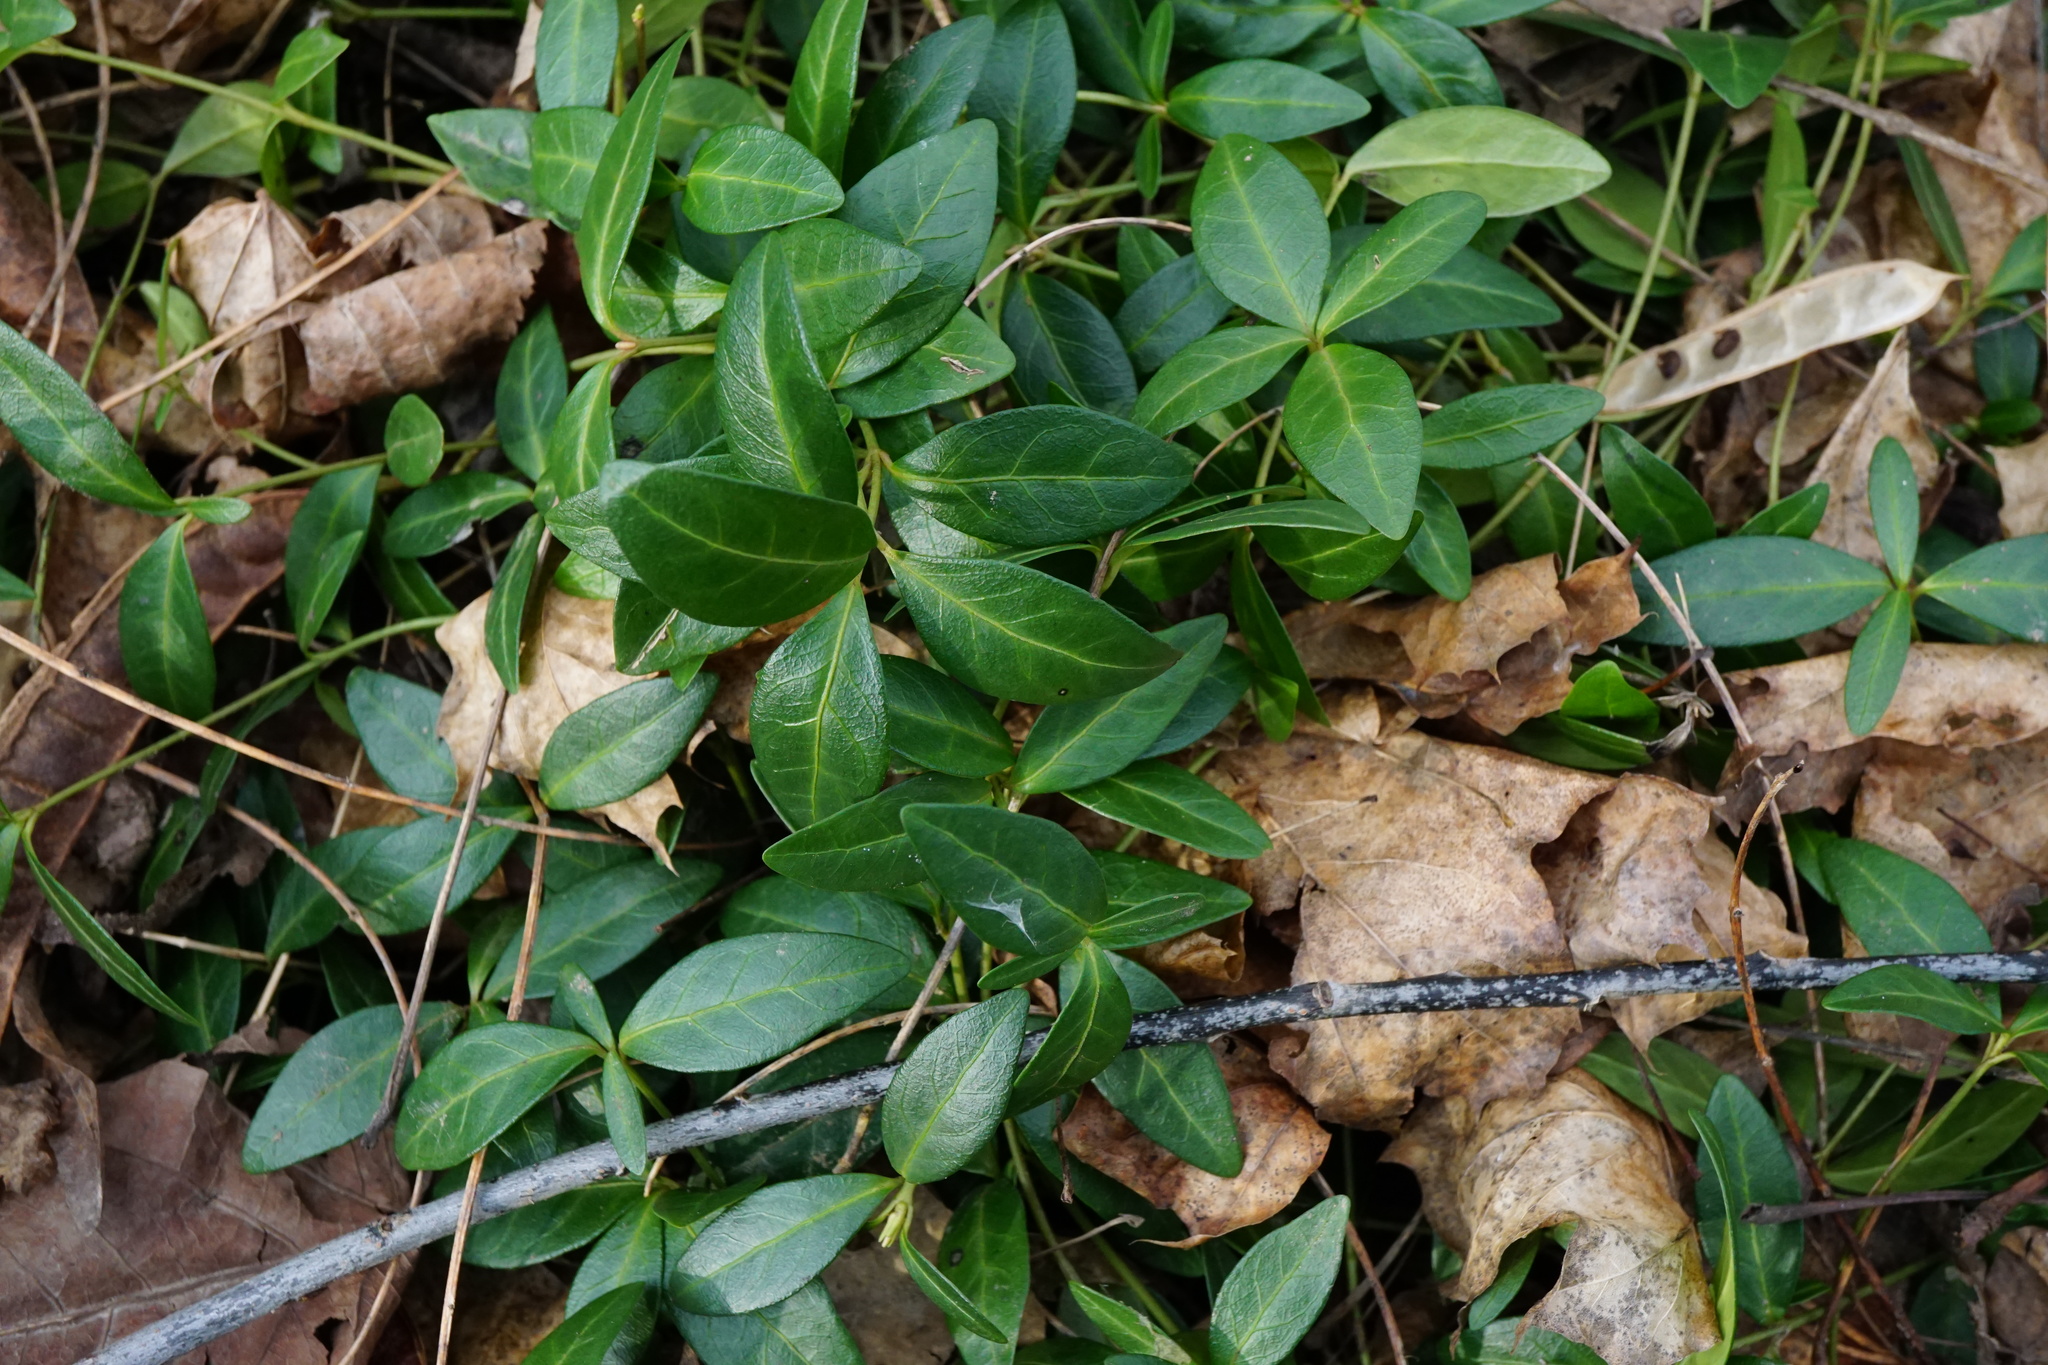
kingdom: Plantae
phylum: Tracheophyta
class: Magnoliopsida
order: Gentianales
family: Apocynaceae
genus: Vinca
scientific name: Vinca minor
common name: Lesser periwinkle
